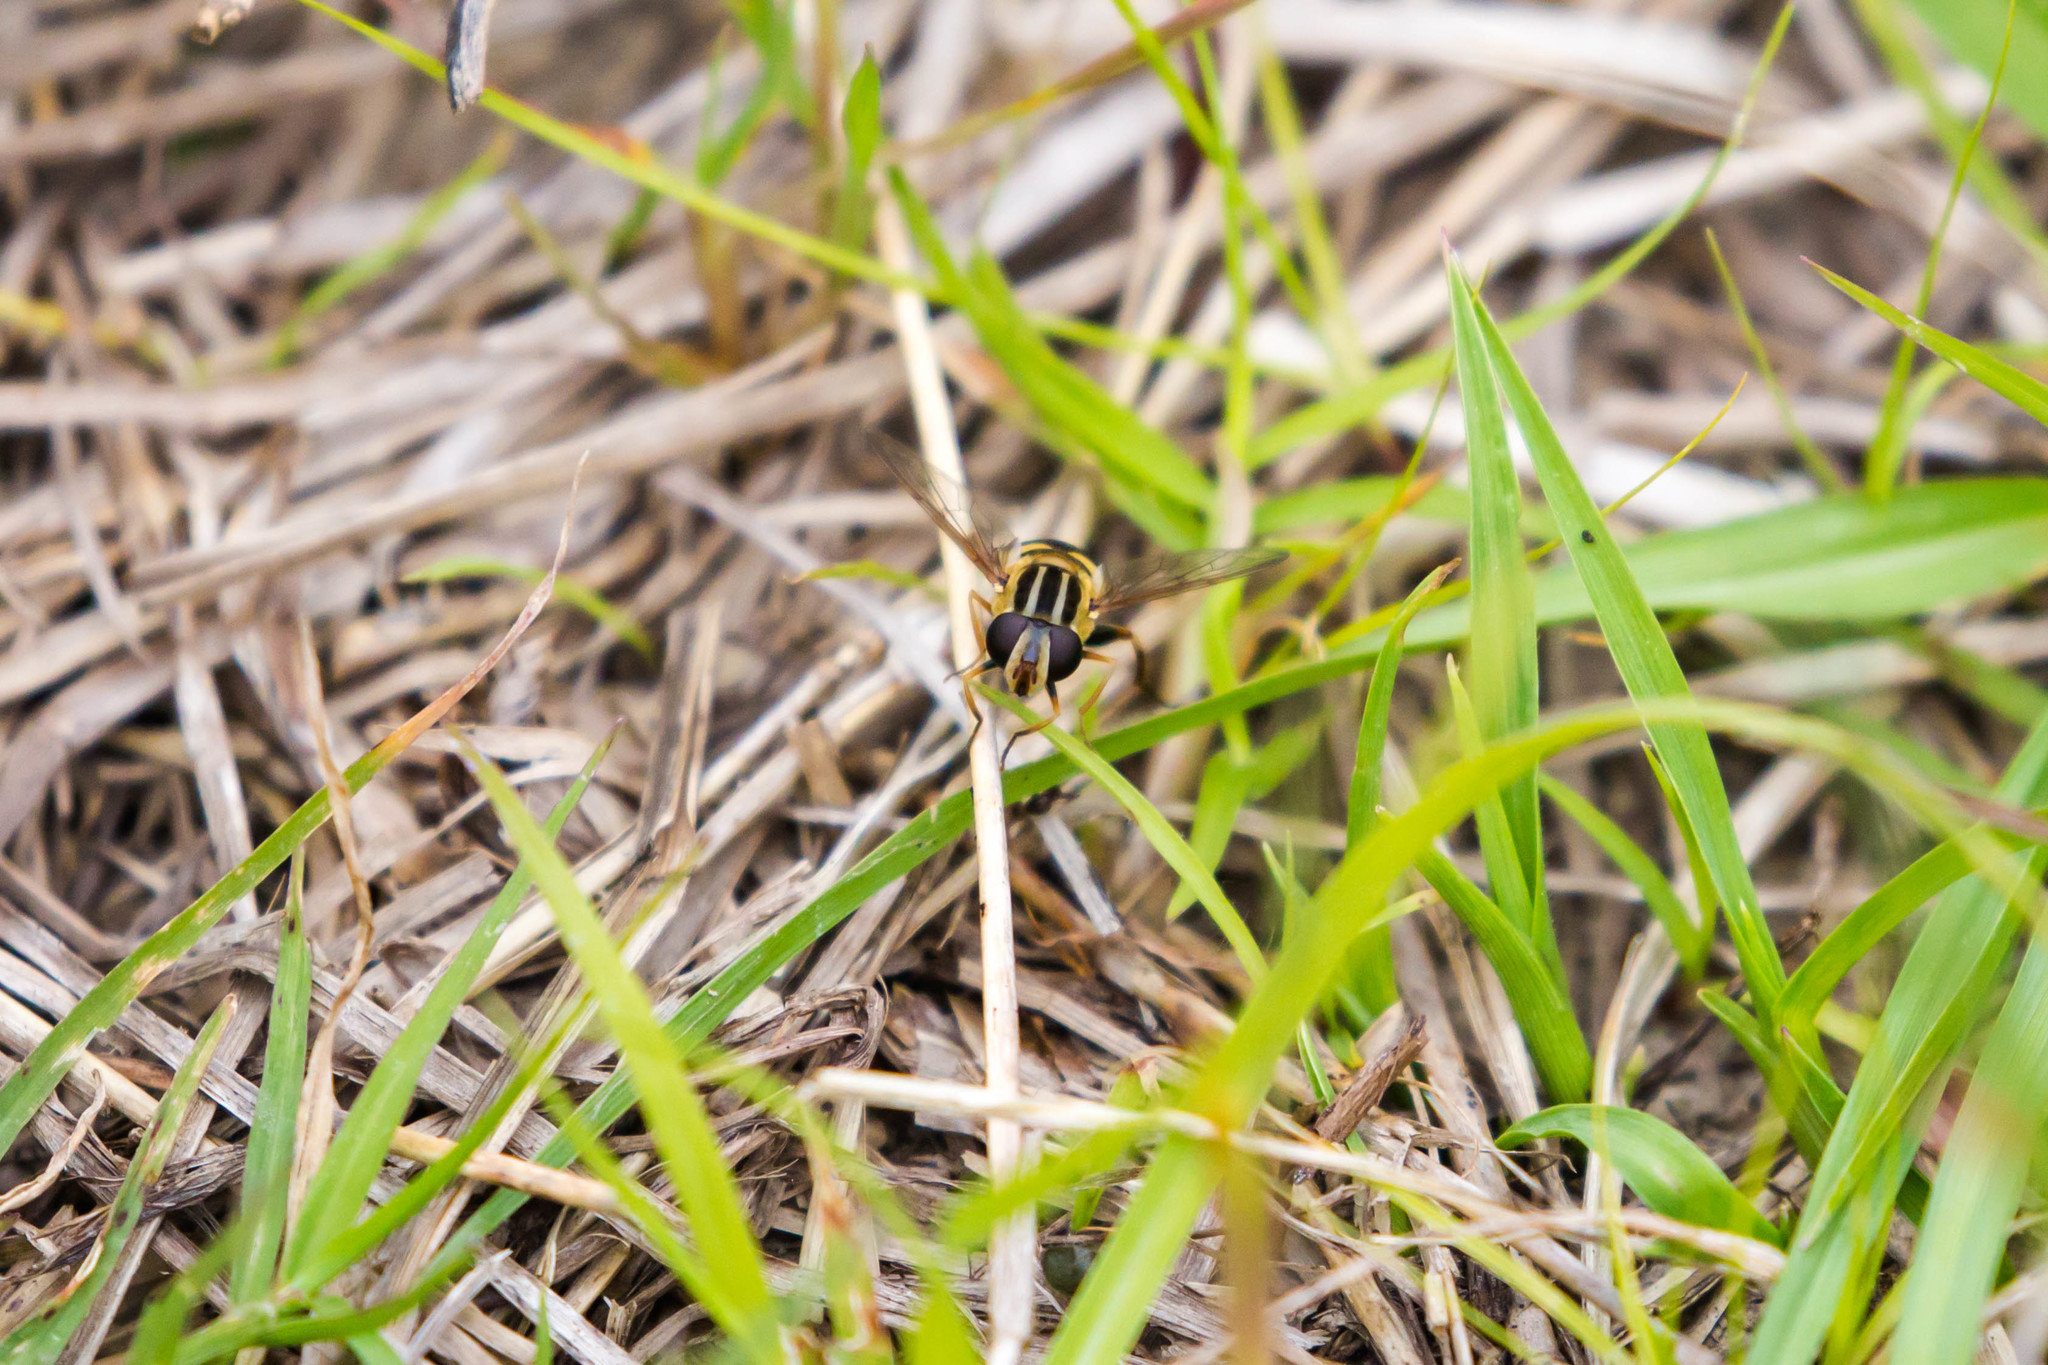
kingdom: Animalia
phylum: Arthropoda
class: Insecta
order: Diptera
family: Syrphidae
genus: Helophilus
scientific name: Helophilus fasciatus
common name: Narrow-headed marsh fly
